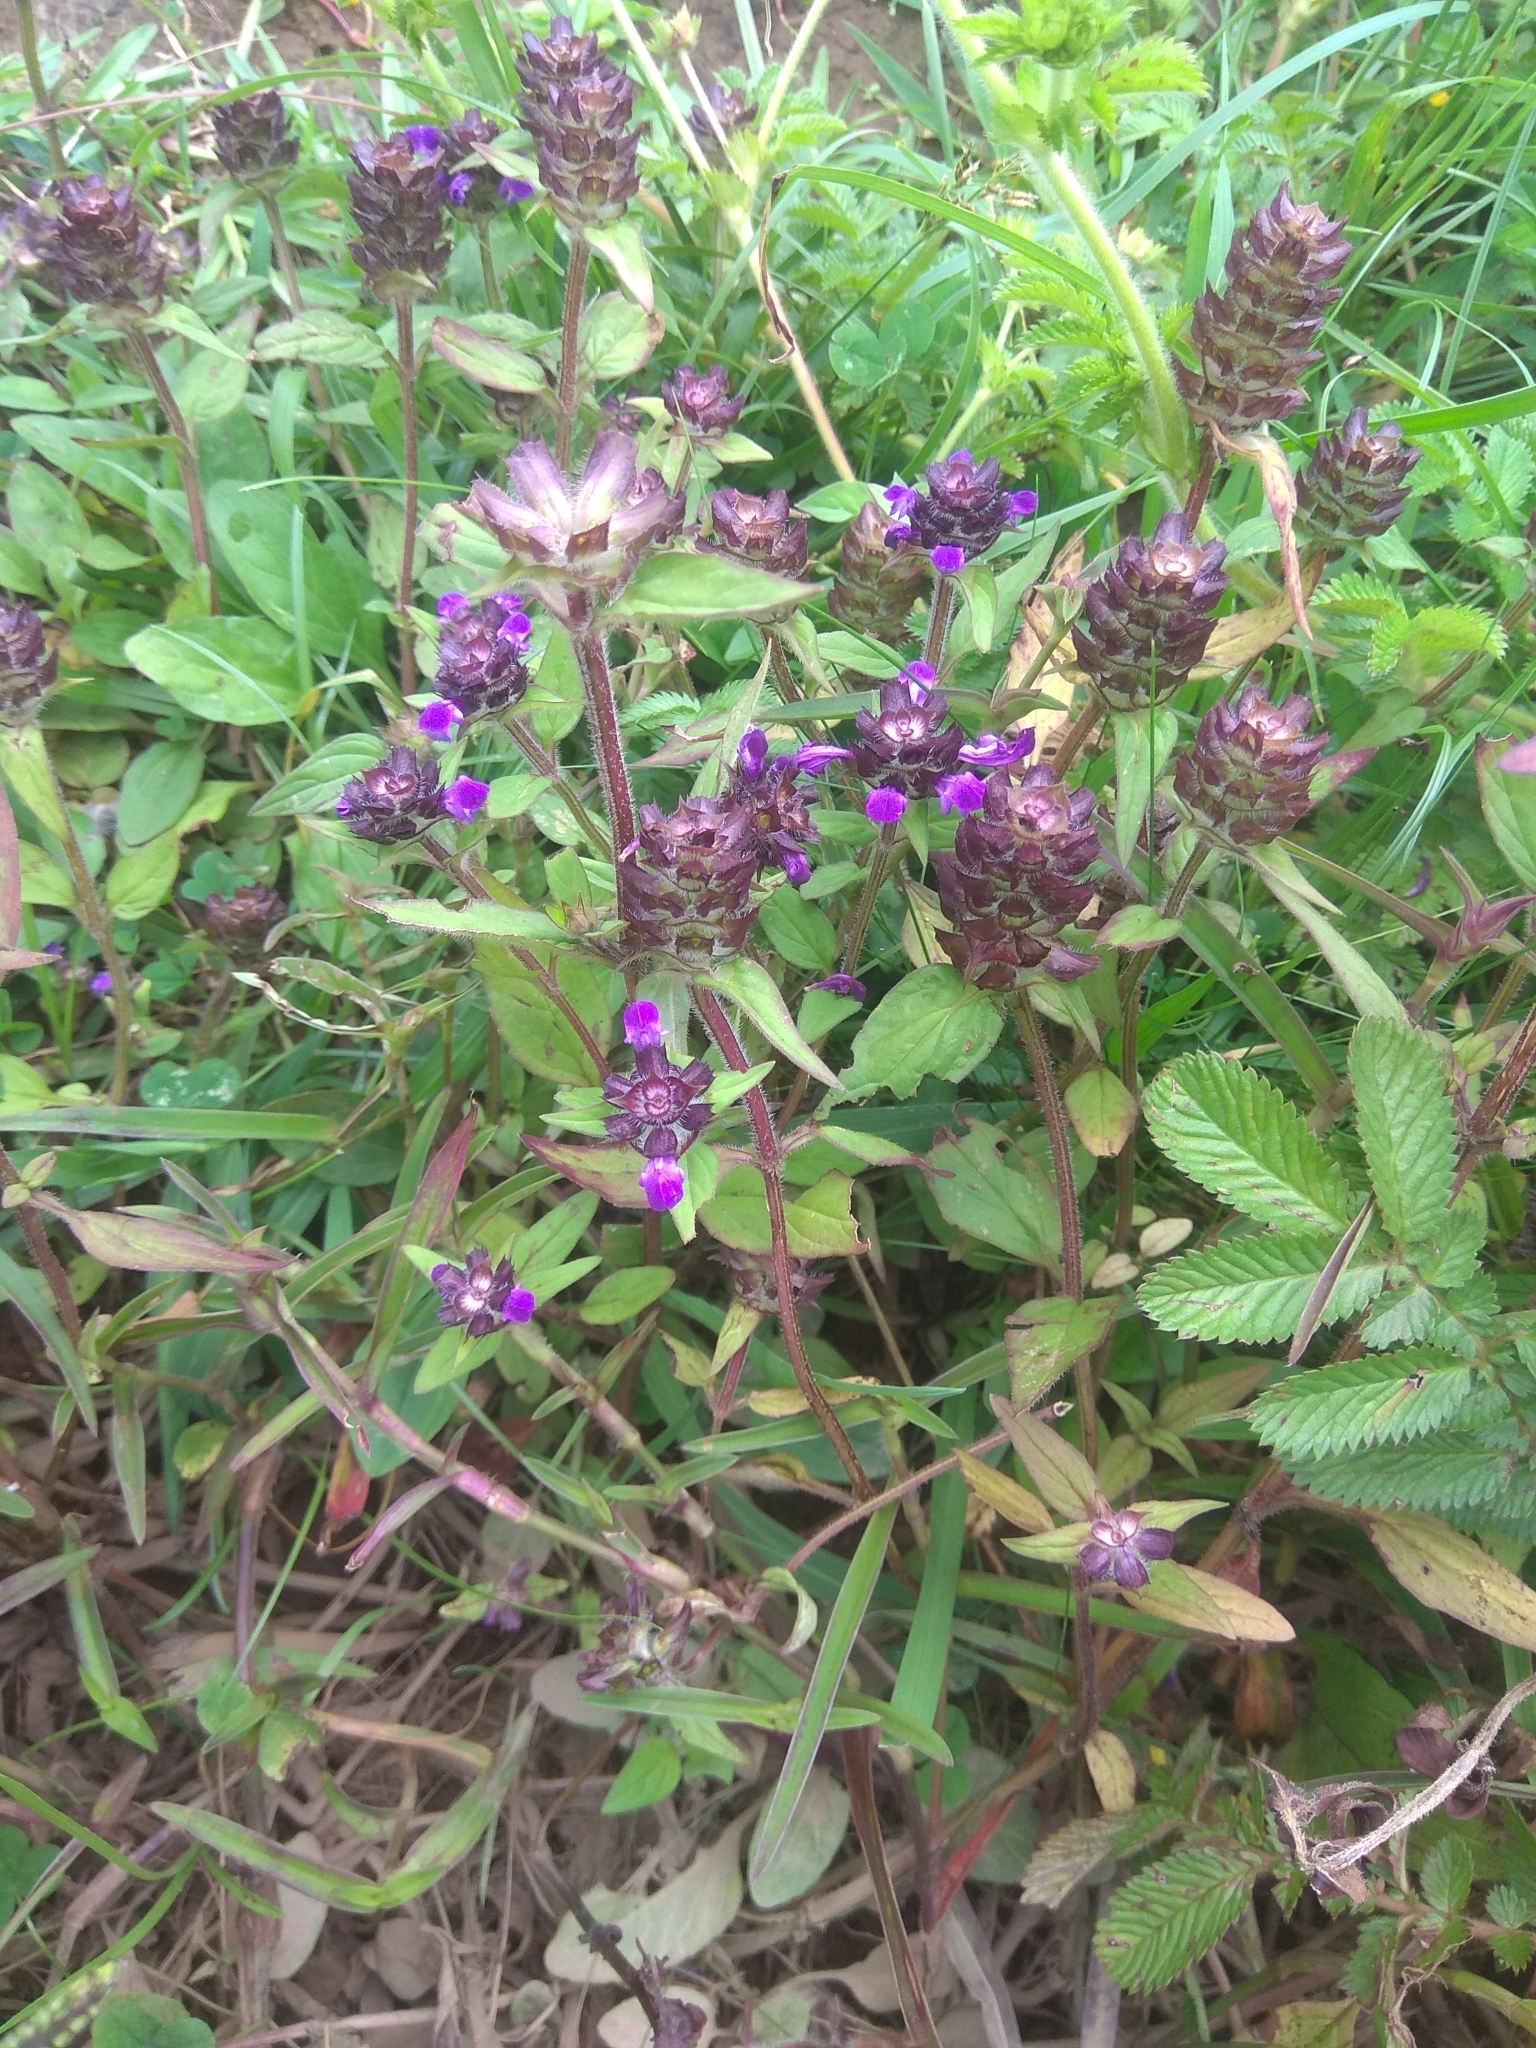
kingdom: Plantae
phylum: Tracheophyta
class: Magnoliopsida
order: Lamiales
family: Lamiaceae
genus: Prunella
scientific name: Prunella vulgaris
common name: Heal-all
